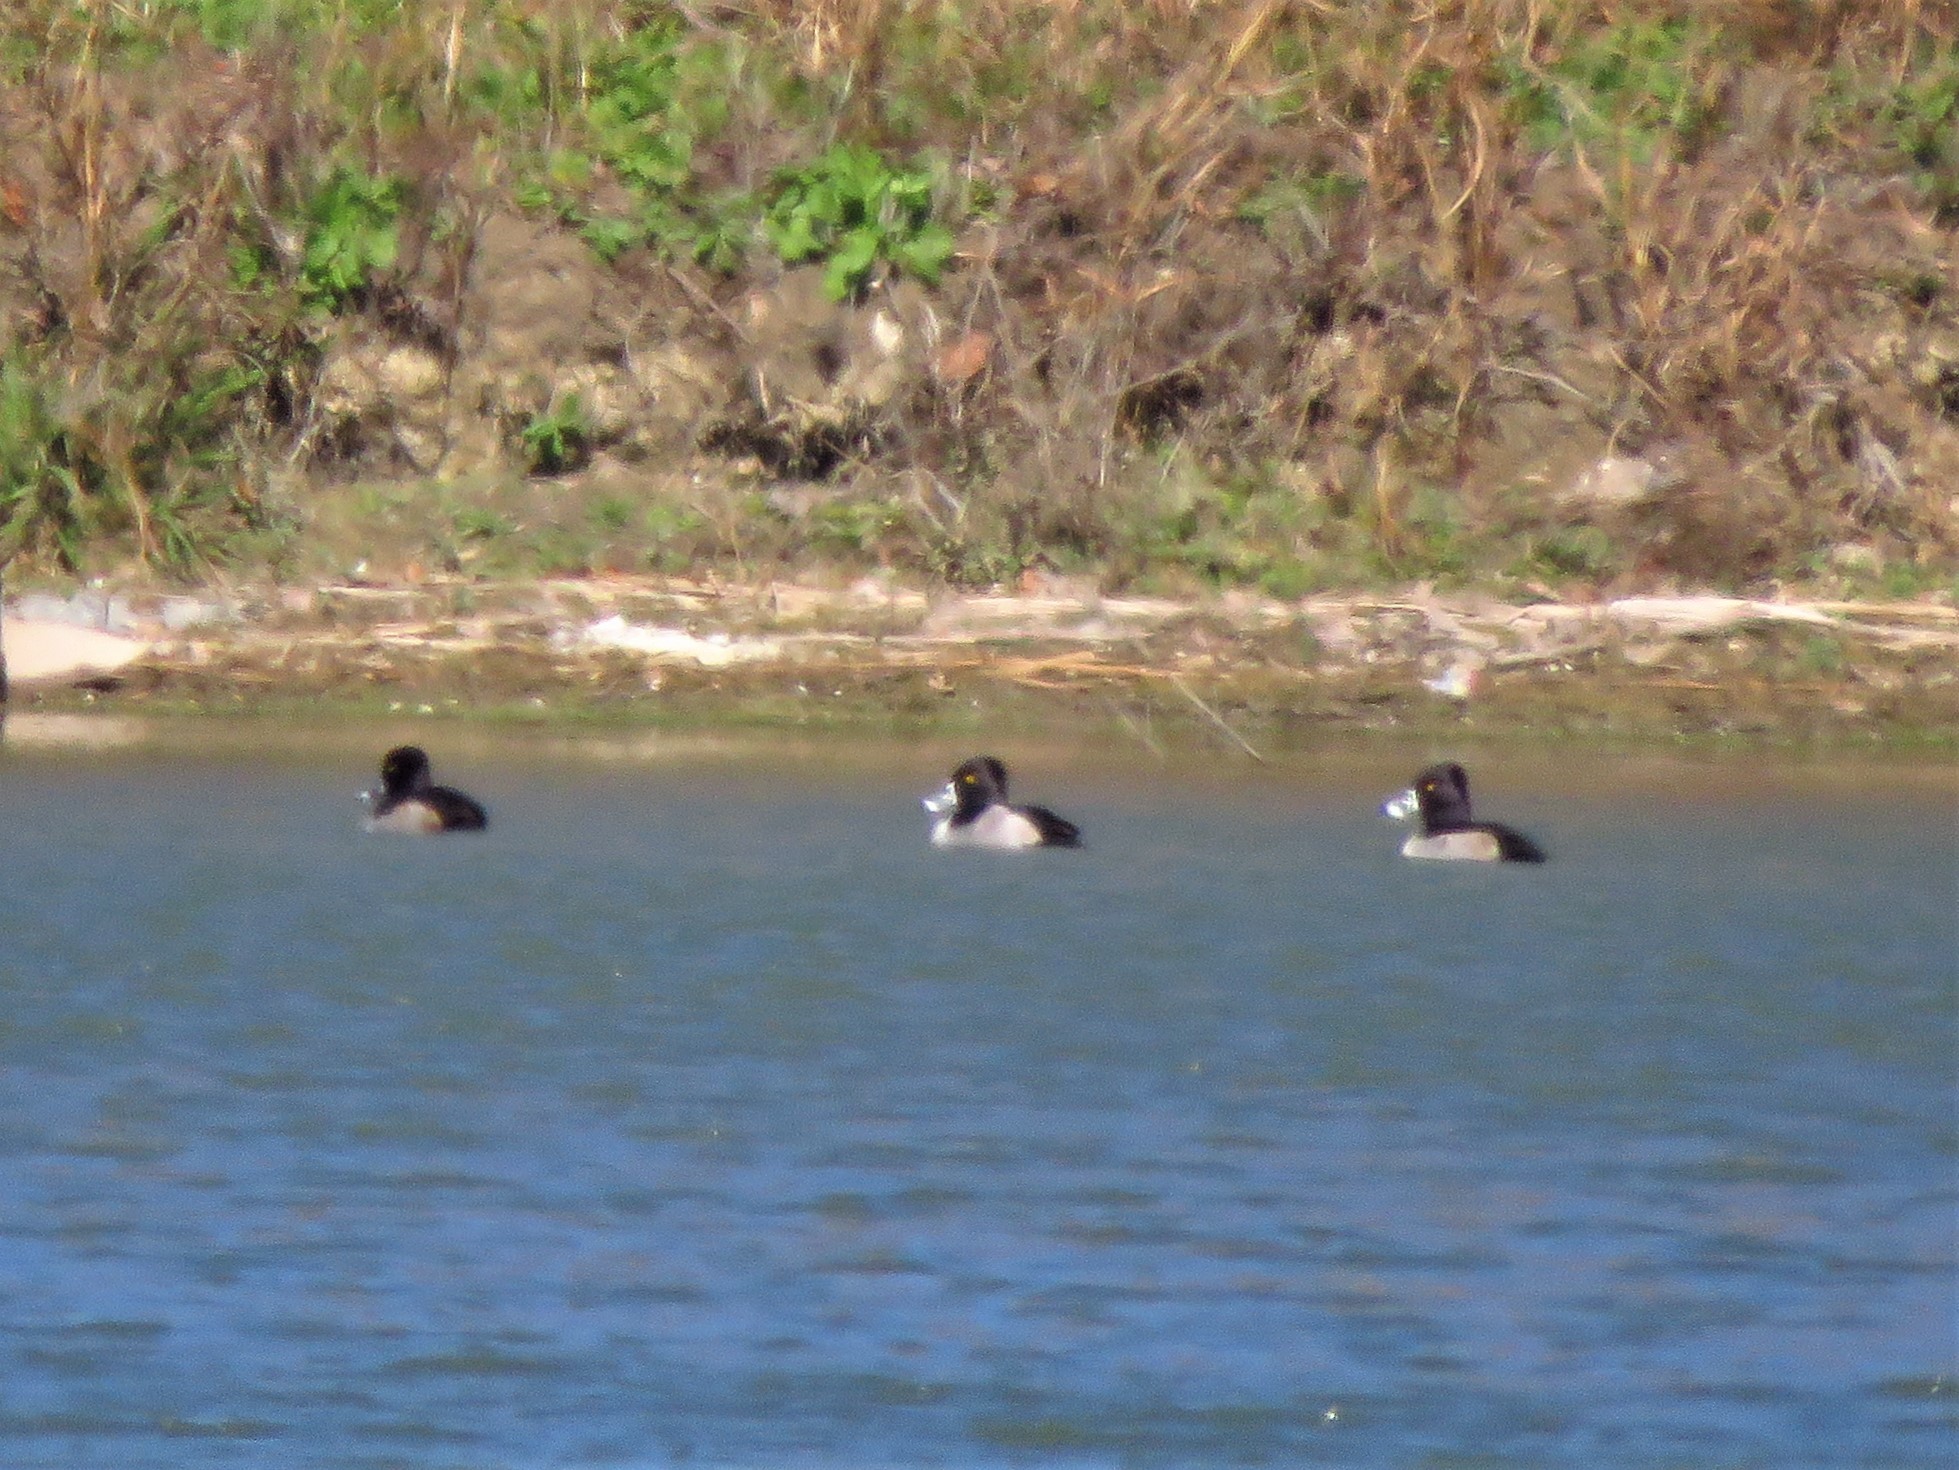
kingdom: Animalia
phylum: Chordata
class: Aves
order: Anseriformes
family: Anatidae
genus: Aythya
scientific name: Aythya collaris
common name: Ring-necked duck
